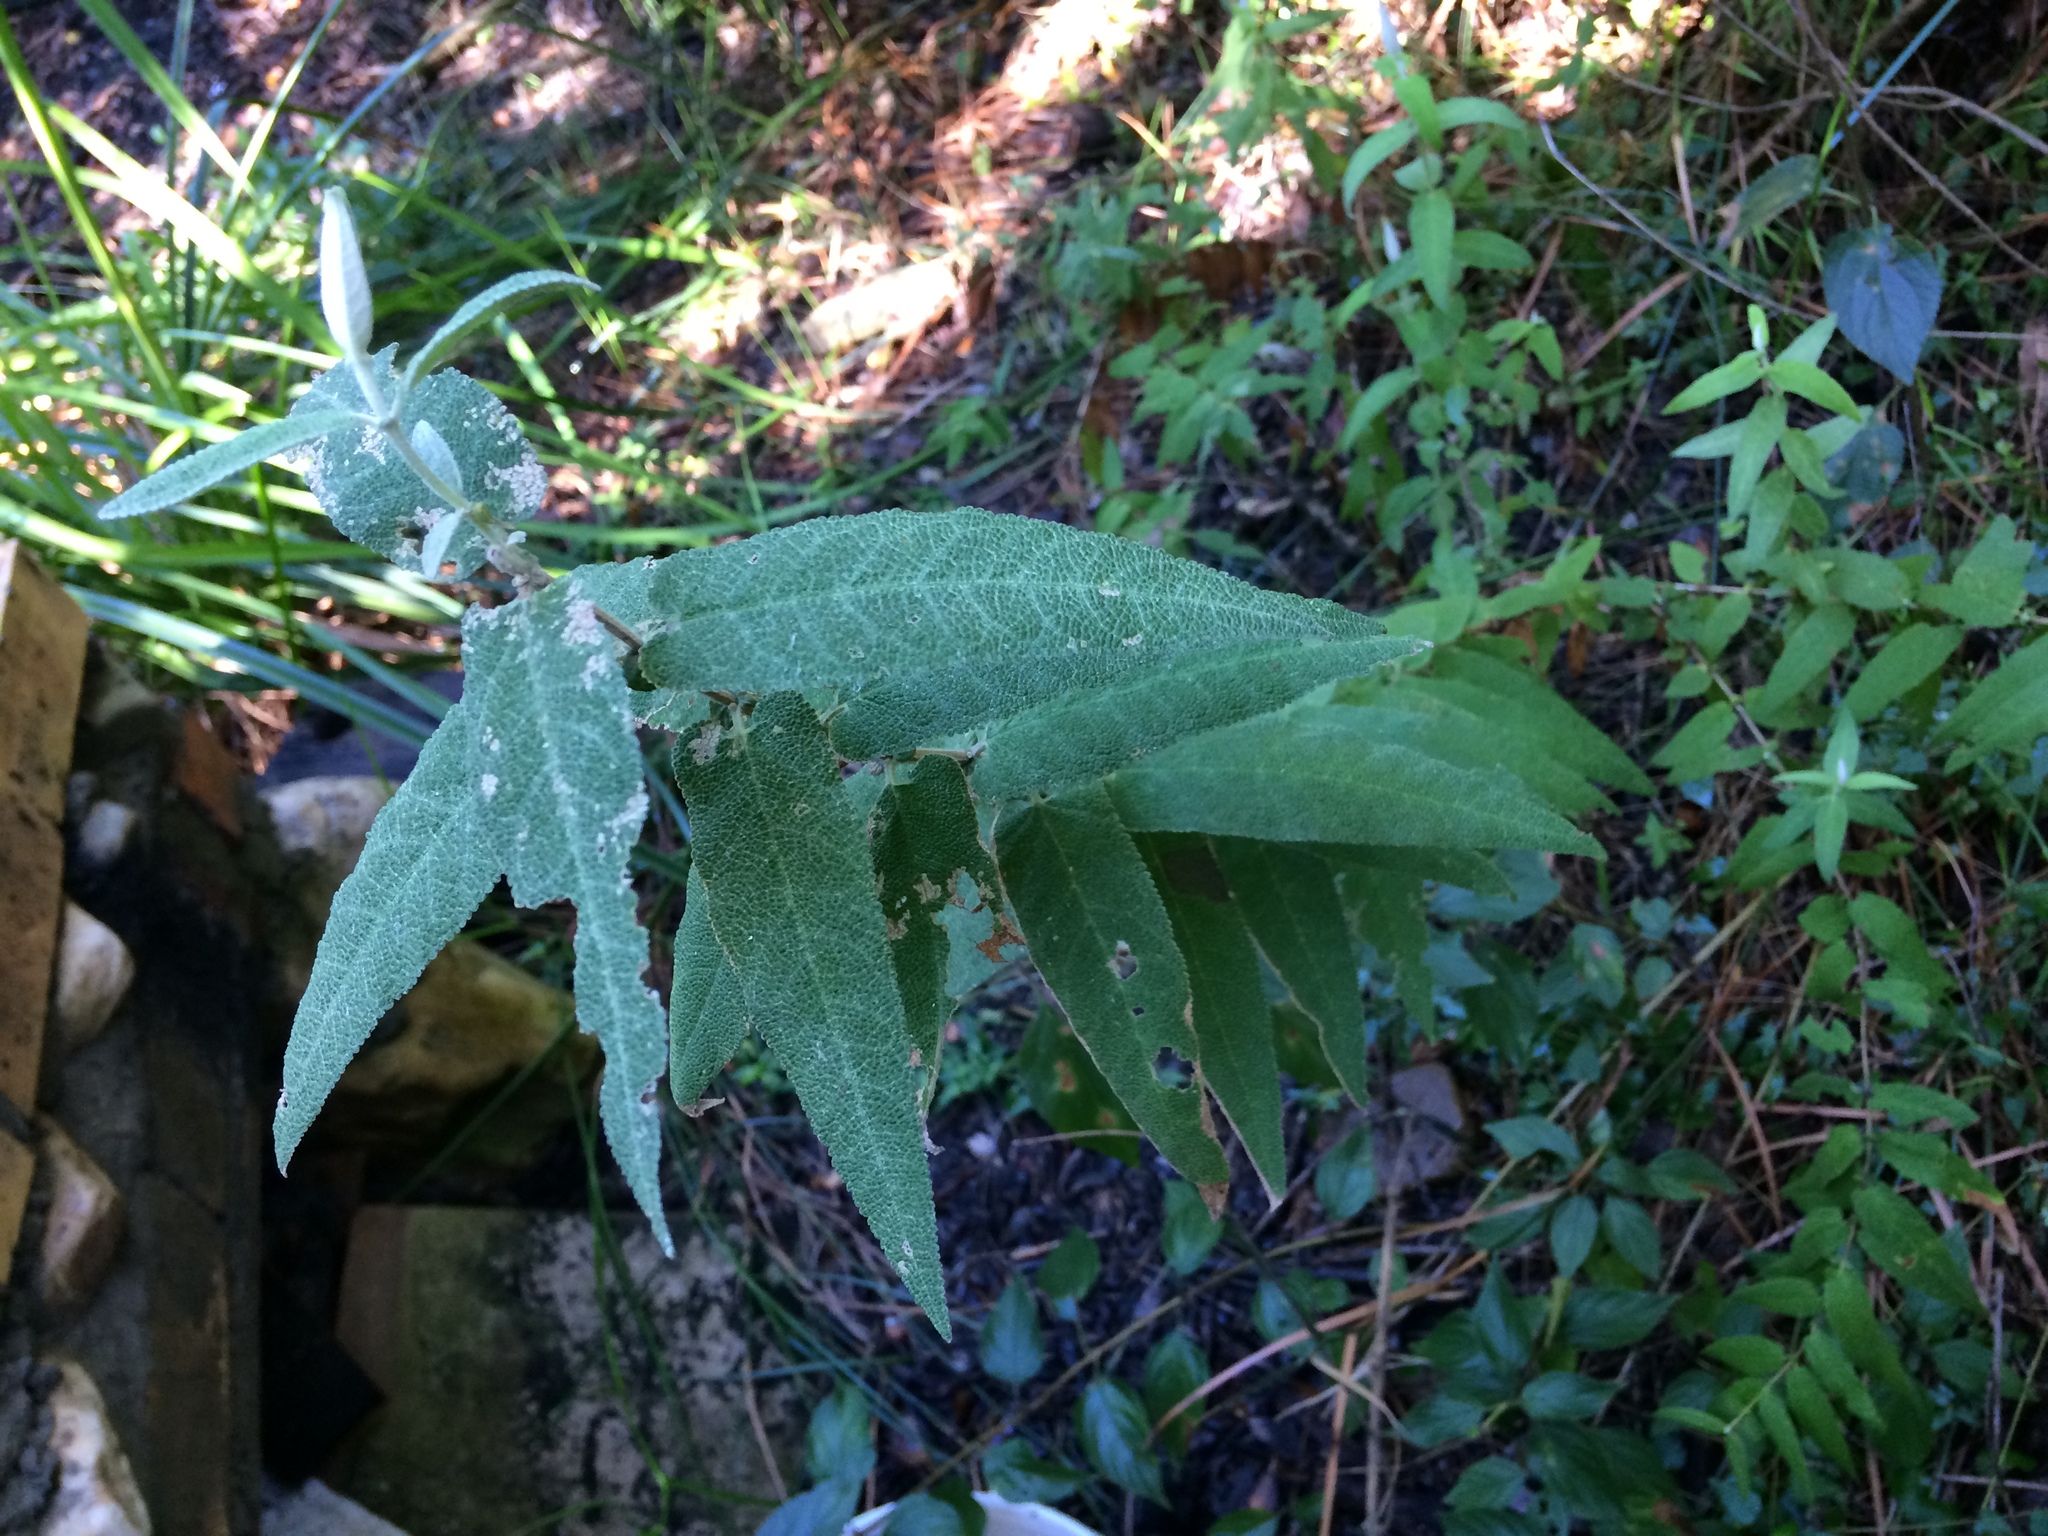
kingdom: Plantae
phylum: Tracheophyta
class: Magnoliopsida
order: Lamiales
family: Scrophulariaceae
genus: Buddleja
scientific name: Buddleja salviifolia
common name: Sagewood
